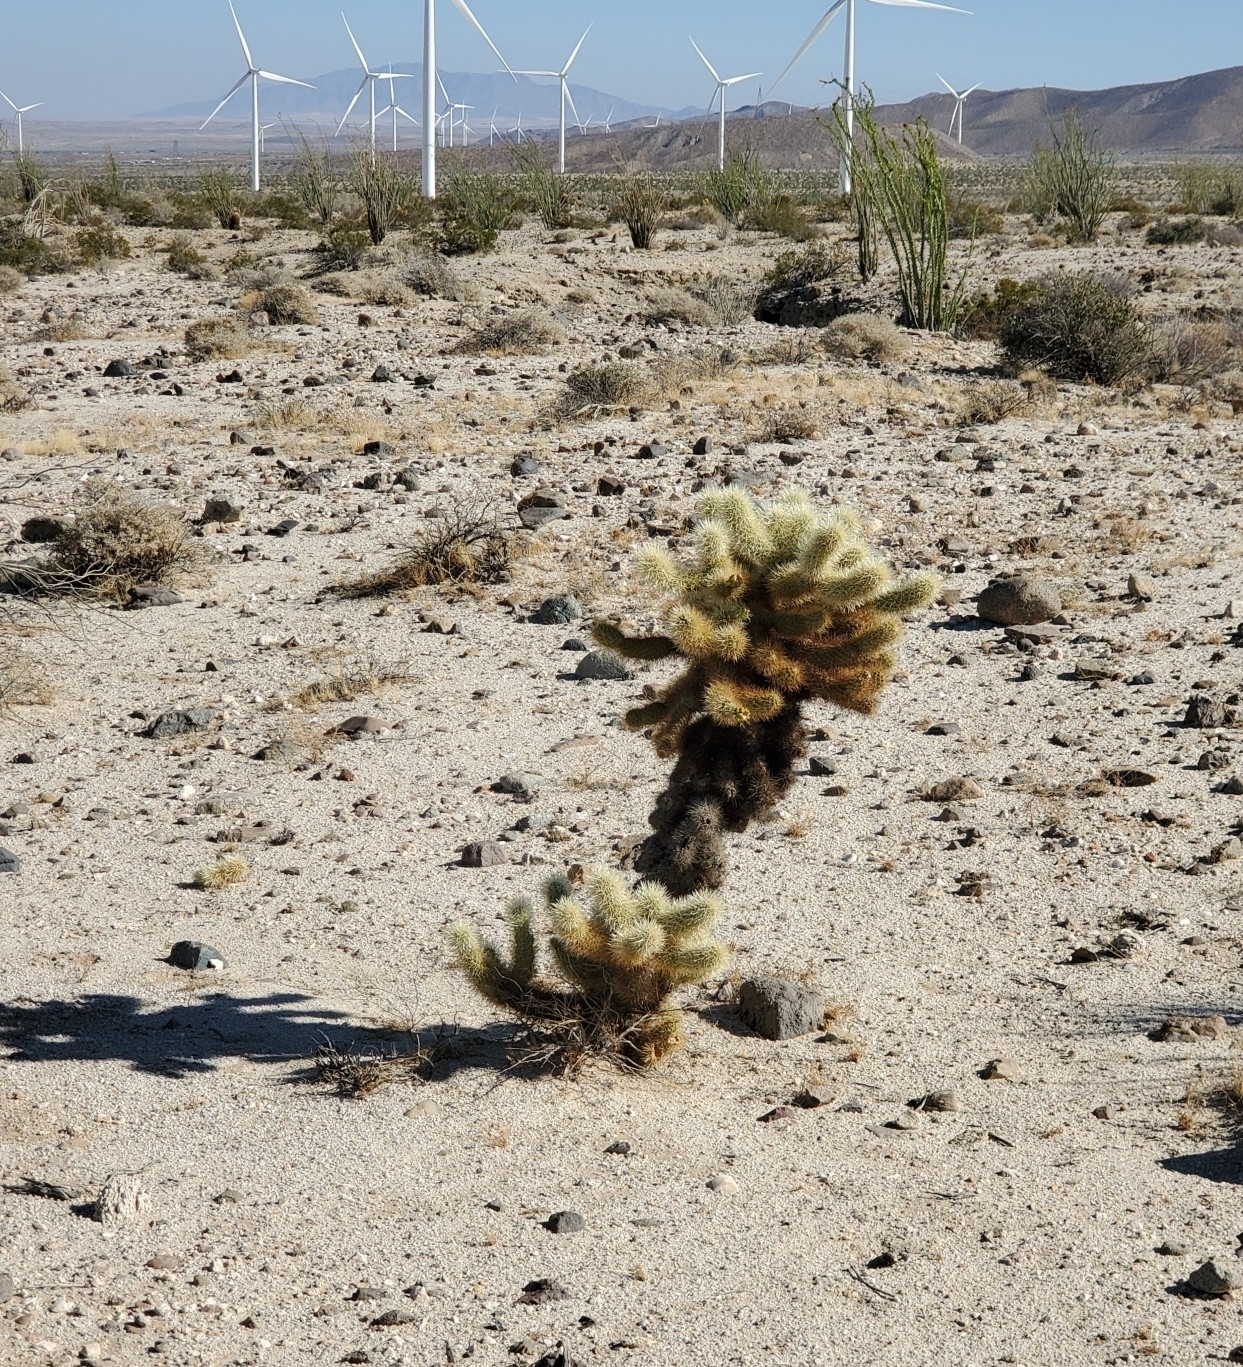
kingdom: Plantae
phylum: Tracheophyta
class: Magnoliopsida
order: Caryophyllales
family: Cactaceae
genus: Cylindropuntia
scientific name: Cylindropuntia fosbergii
